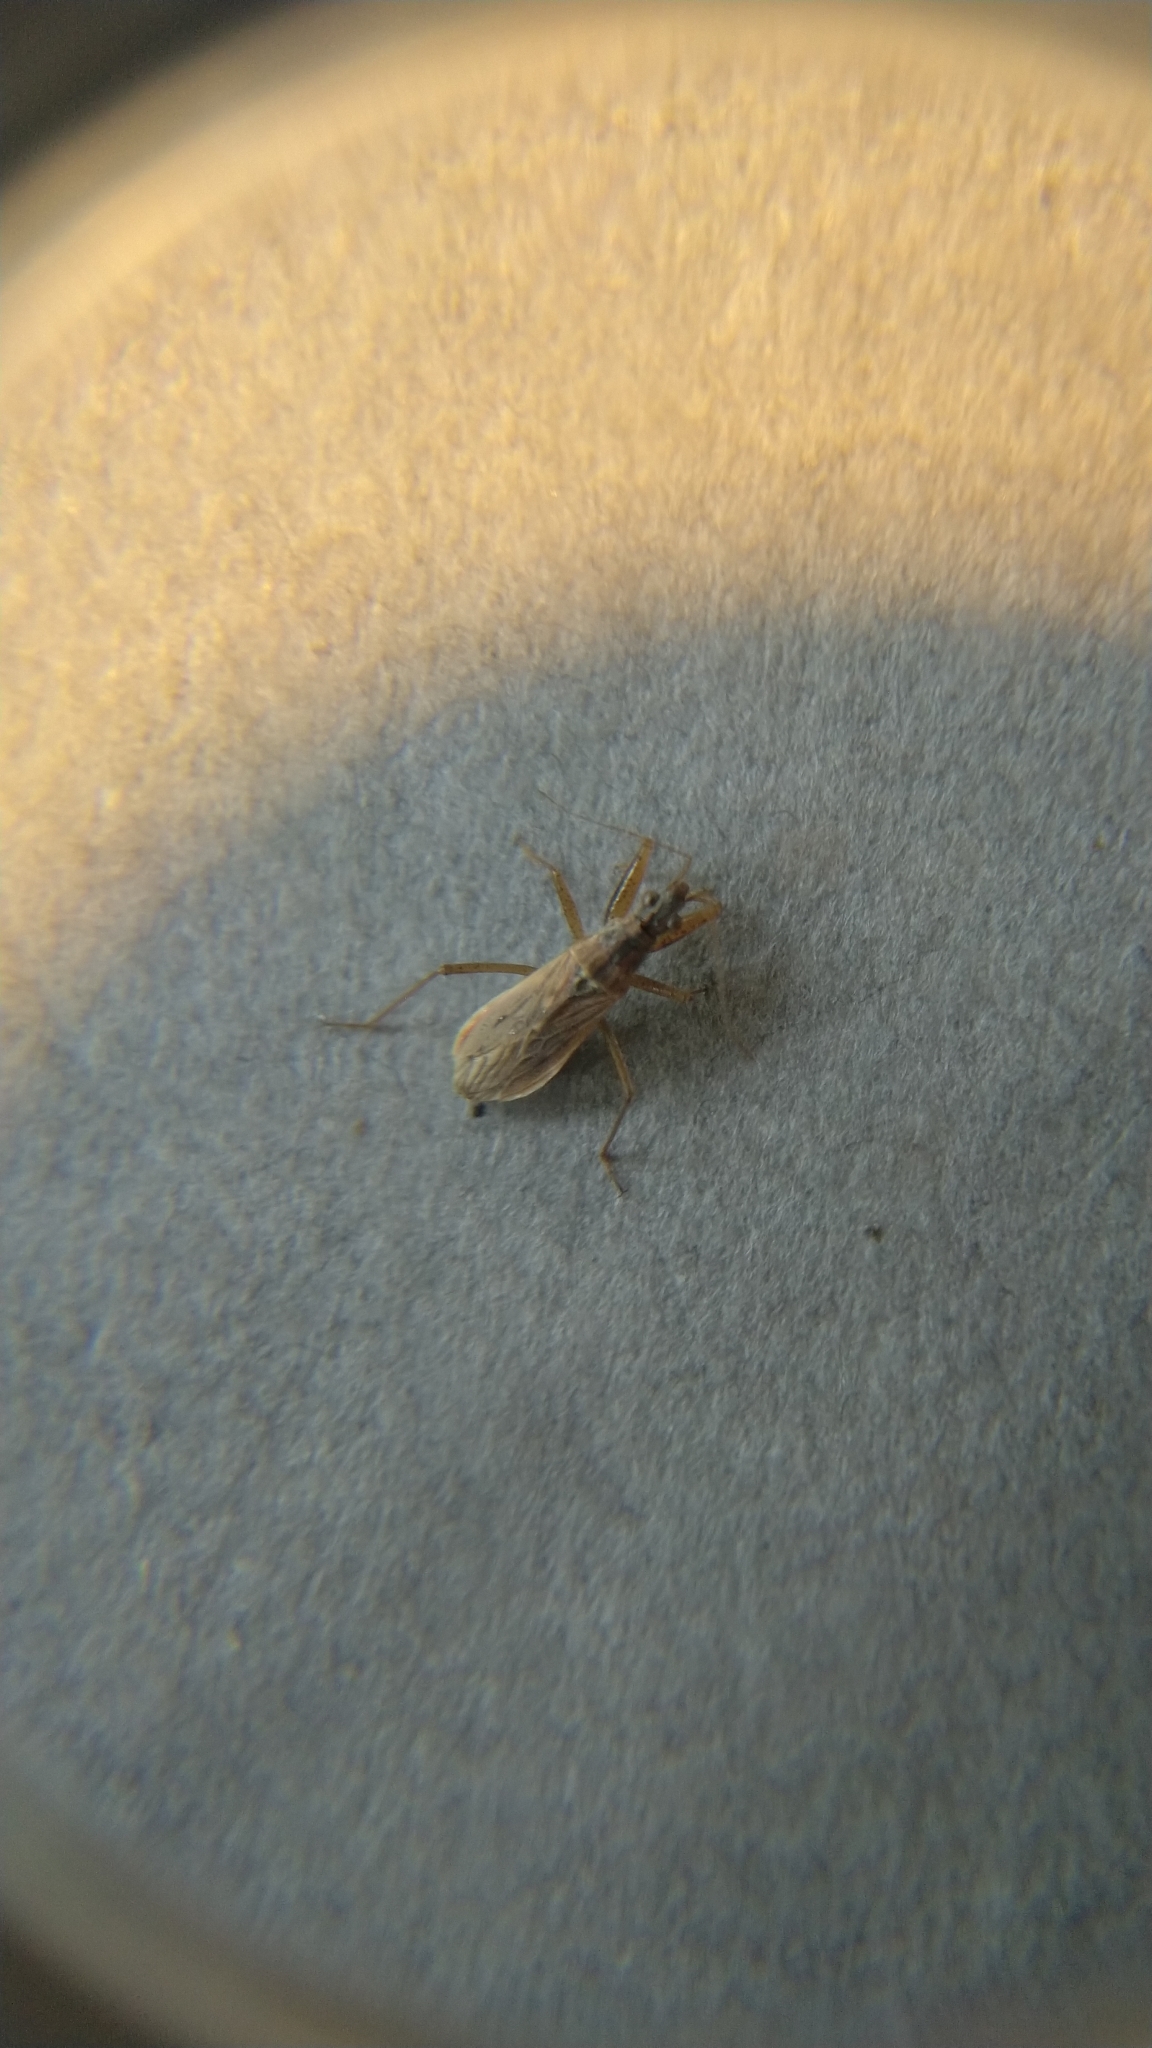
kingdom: Animalia
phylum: Arthropoda
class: Insecta
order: Hemiptera
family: Nabidae
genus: Nabis
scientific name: Nabis
